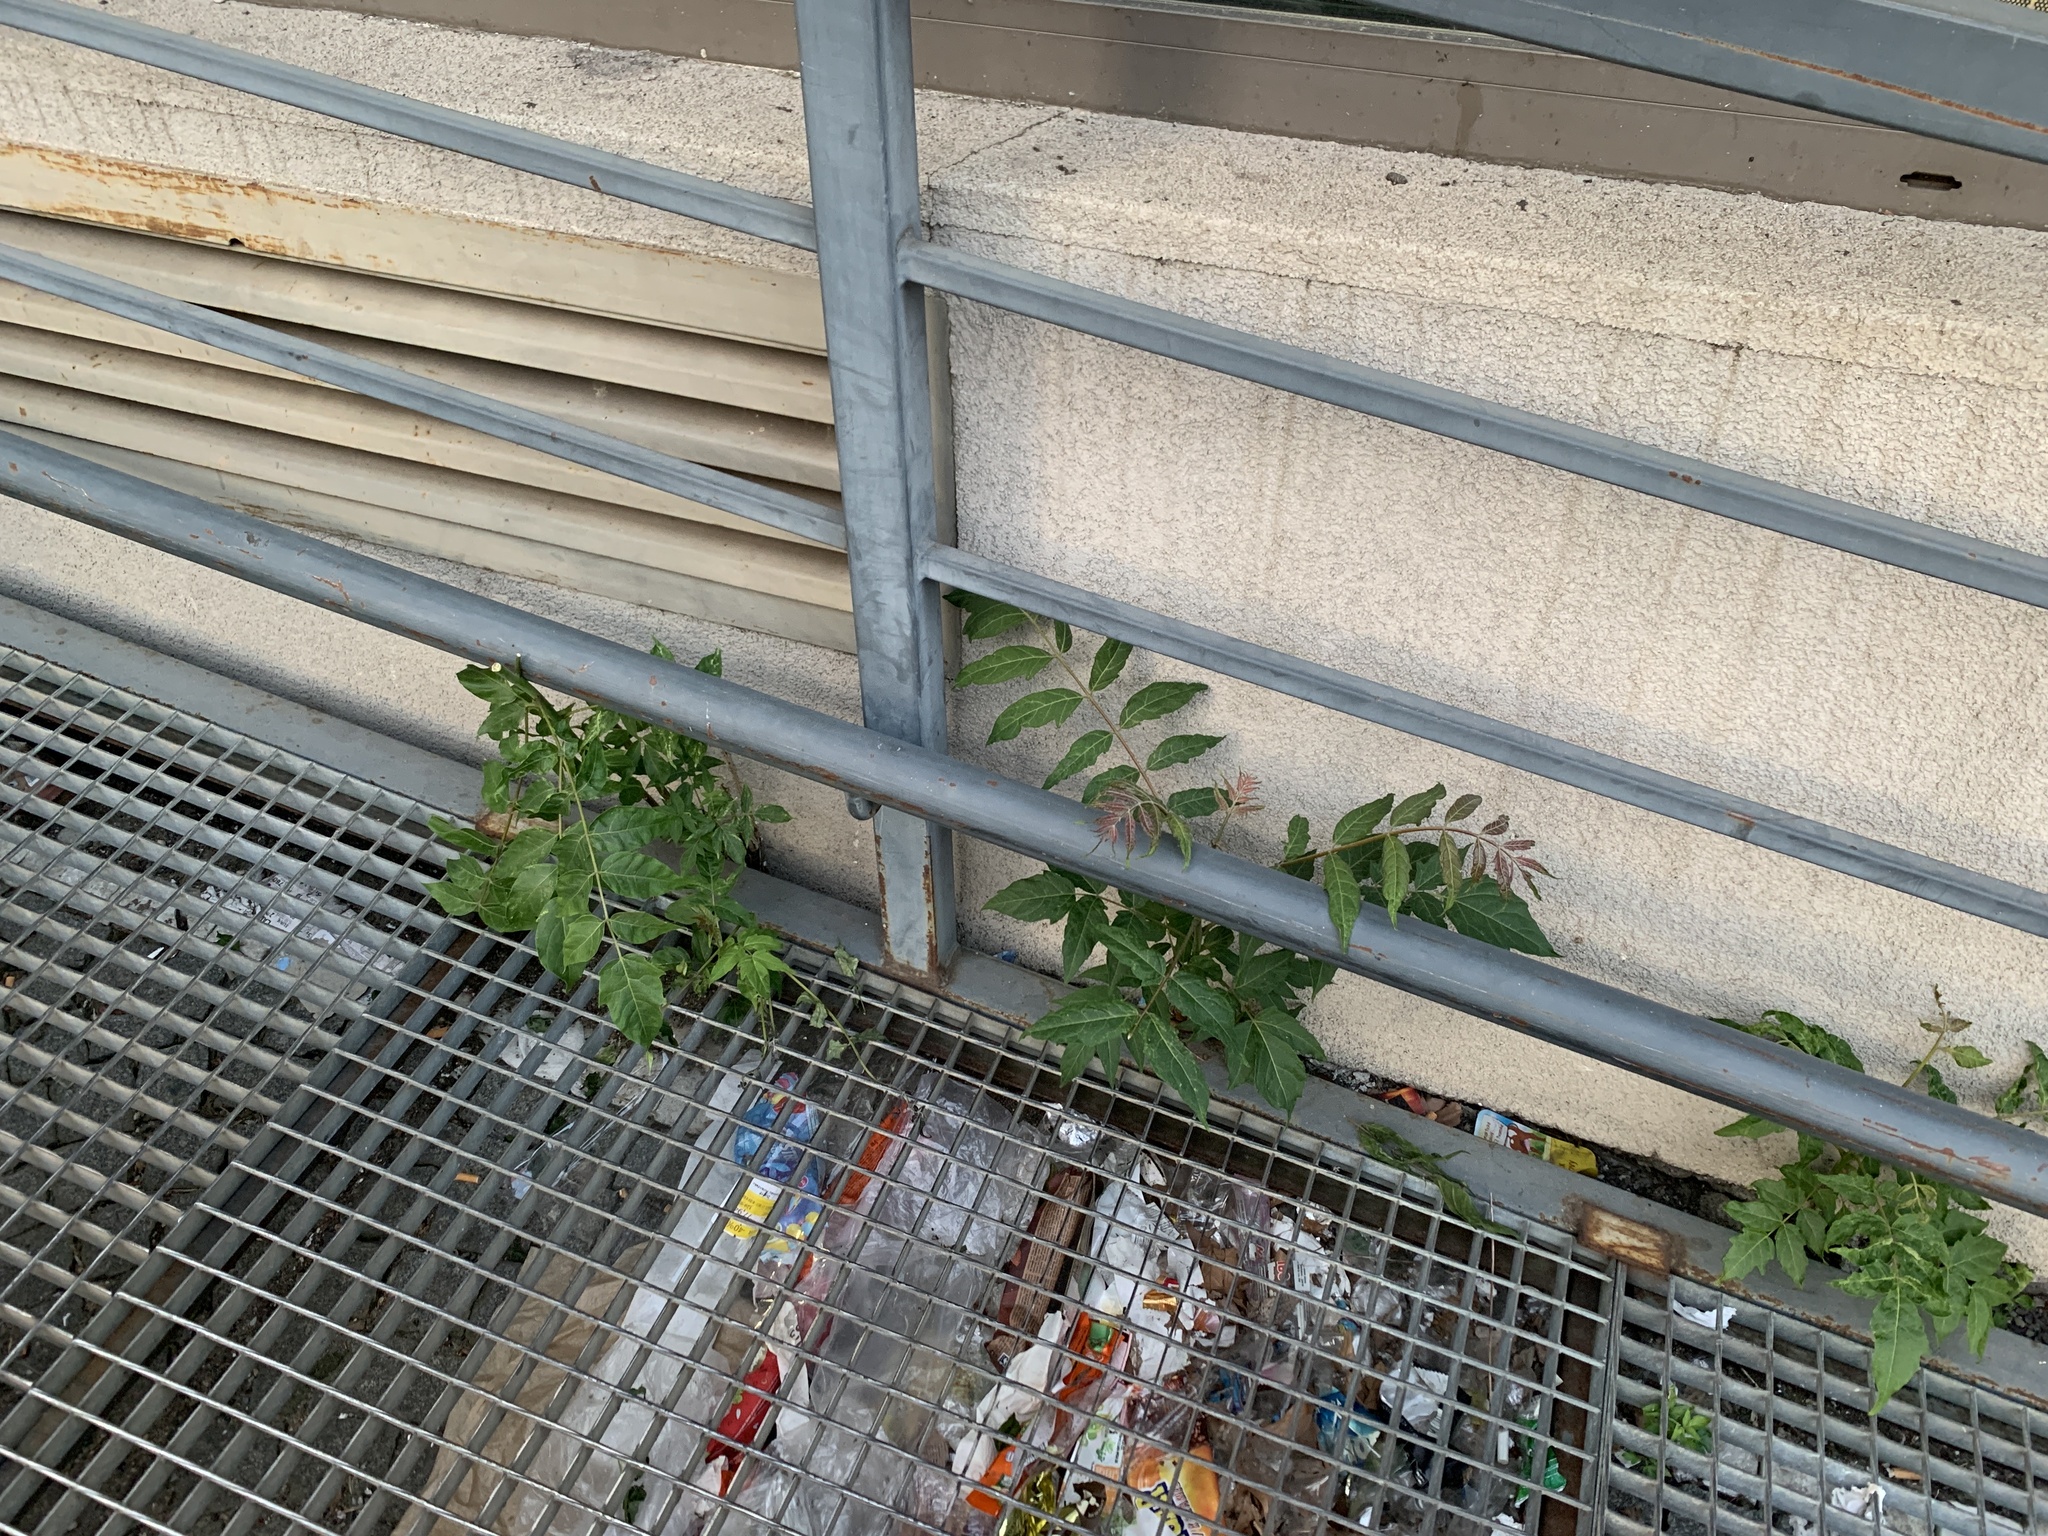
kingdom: Plantae
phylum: Tracheophyta
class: Magnoliopsida
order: Sapindales
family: Simaroubaceae
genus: Ailanthus
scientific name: Ailanthus altissima
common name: Tree-of-heaven
